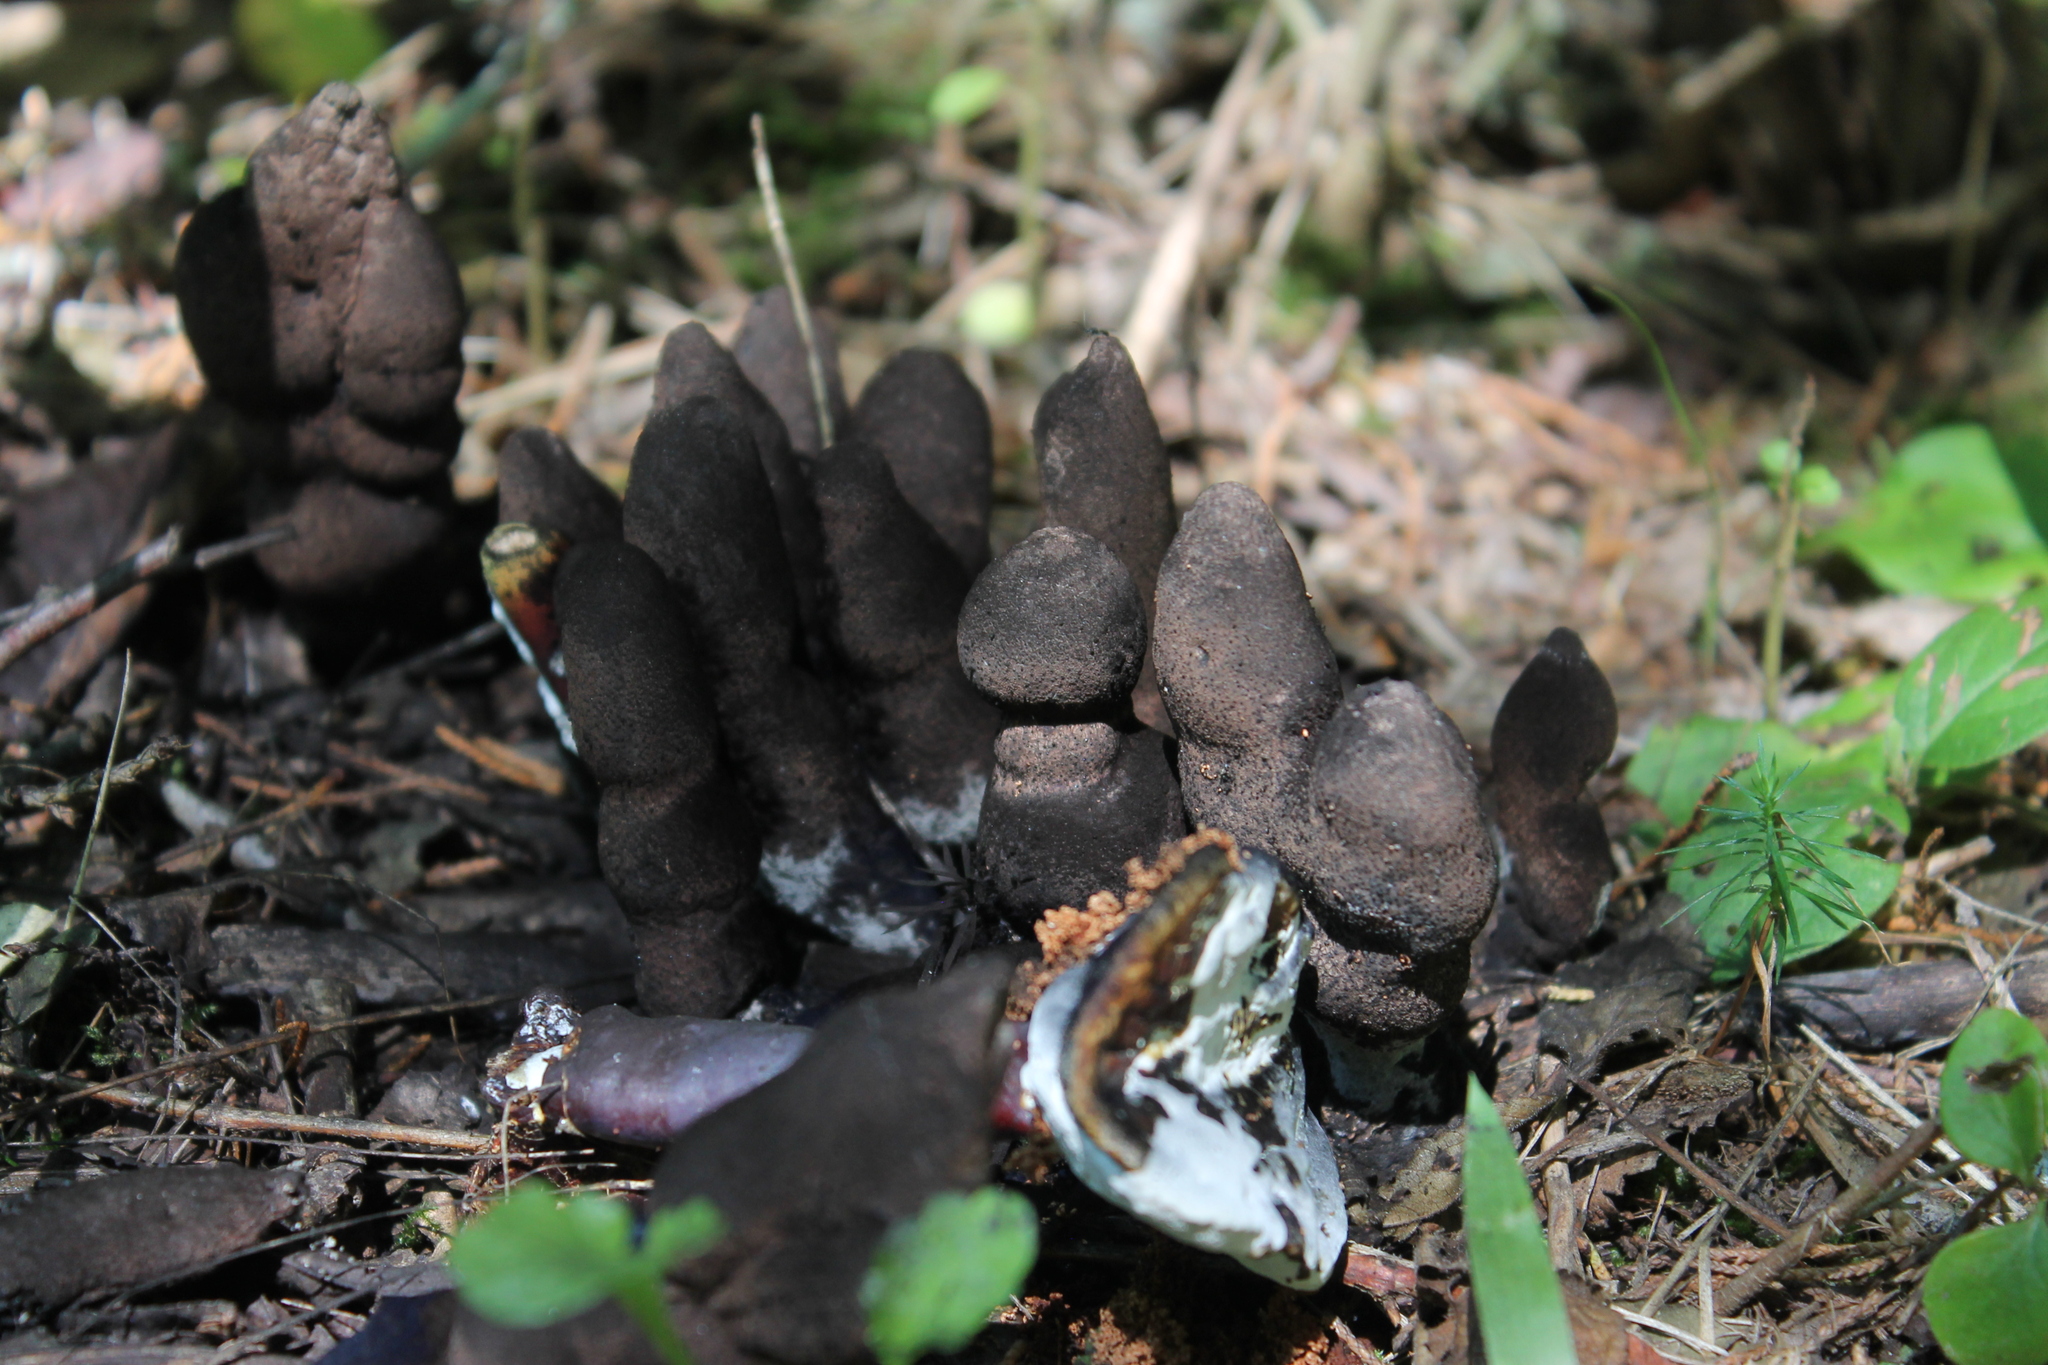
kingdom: Fungi
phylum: Ascomycota
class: Sordariomycetes
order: Xylariales
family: Xylariaceae
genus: Xylaria
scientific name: Xylaria polymorpha
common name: Dead man's fingers
